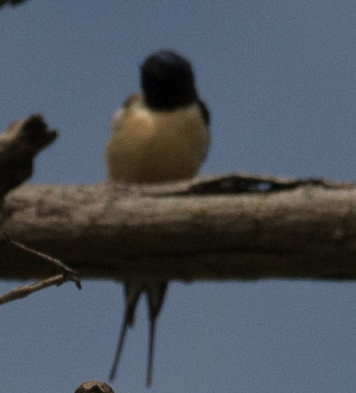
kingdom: Animalia
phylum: Chordata
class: Aves
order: Passeriformes
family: Hirundinidae
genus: Hirundo
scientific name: Hirundo rustica
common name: Barn swallow
